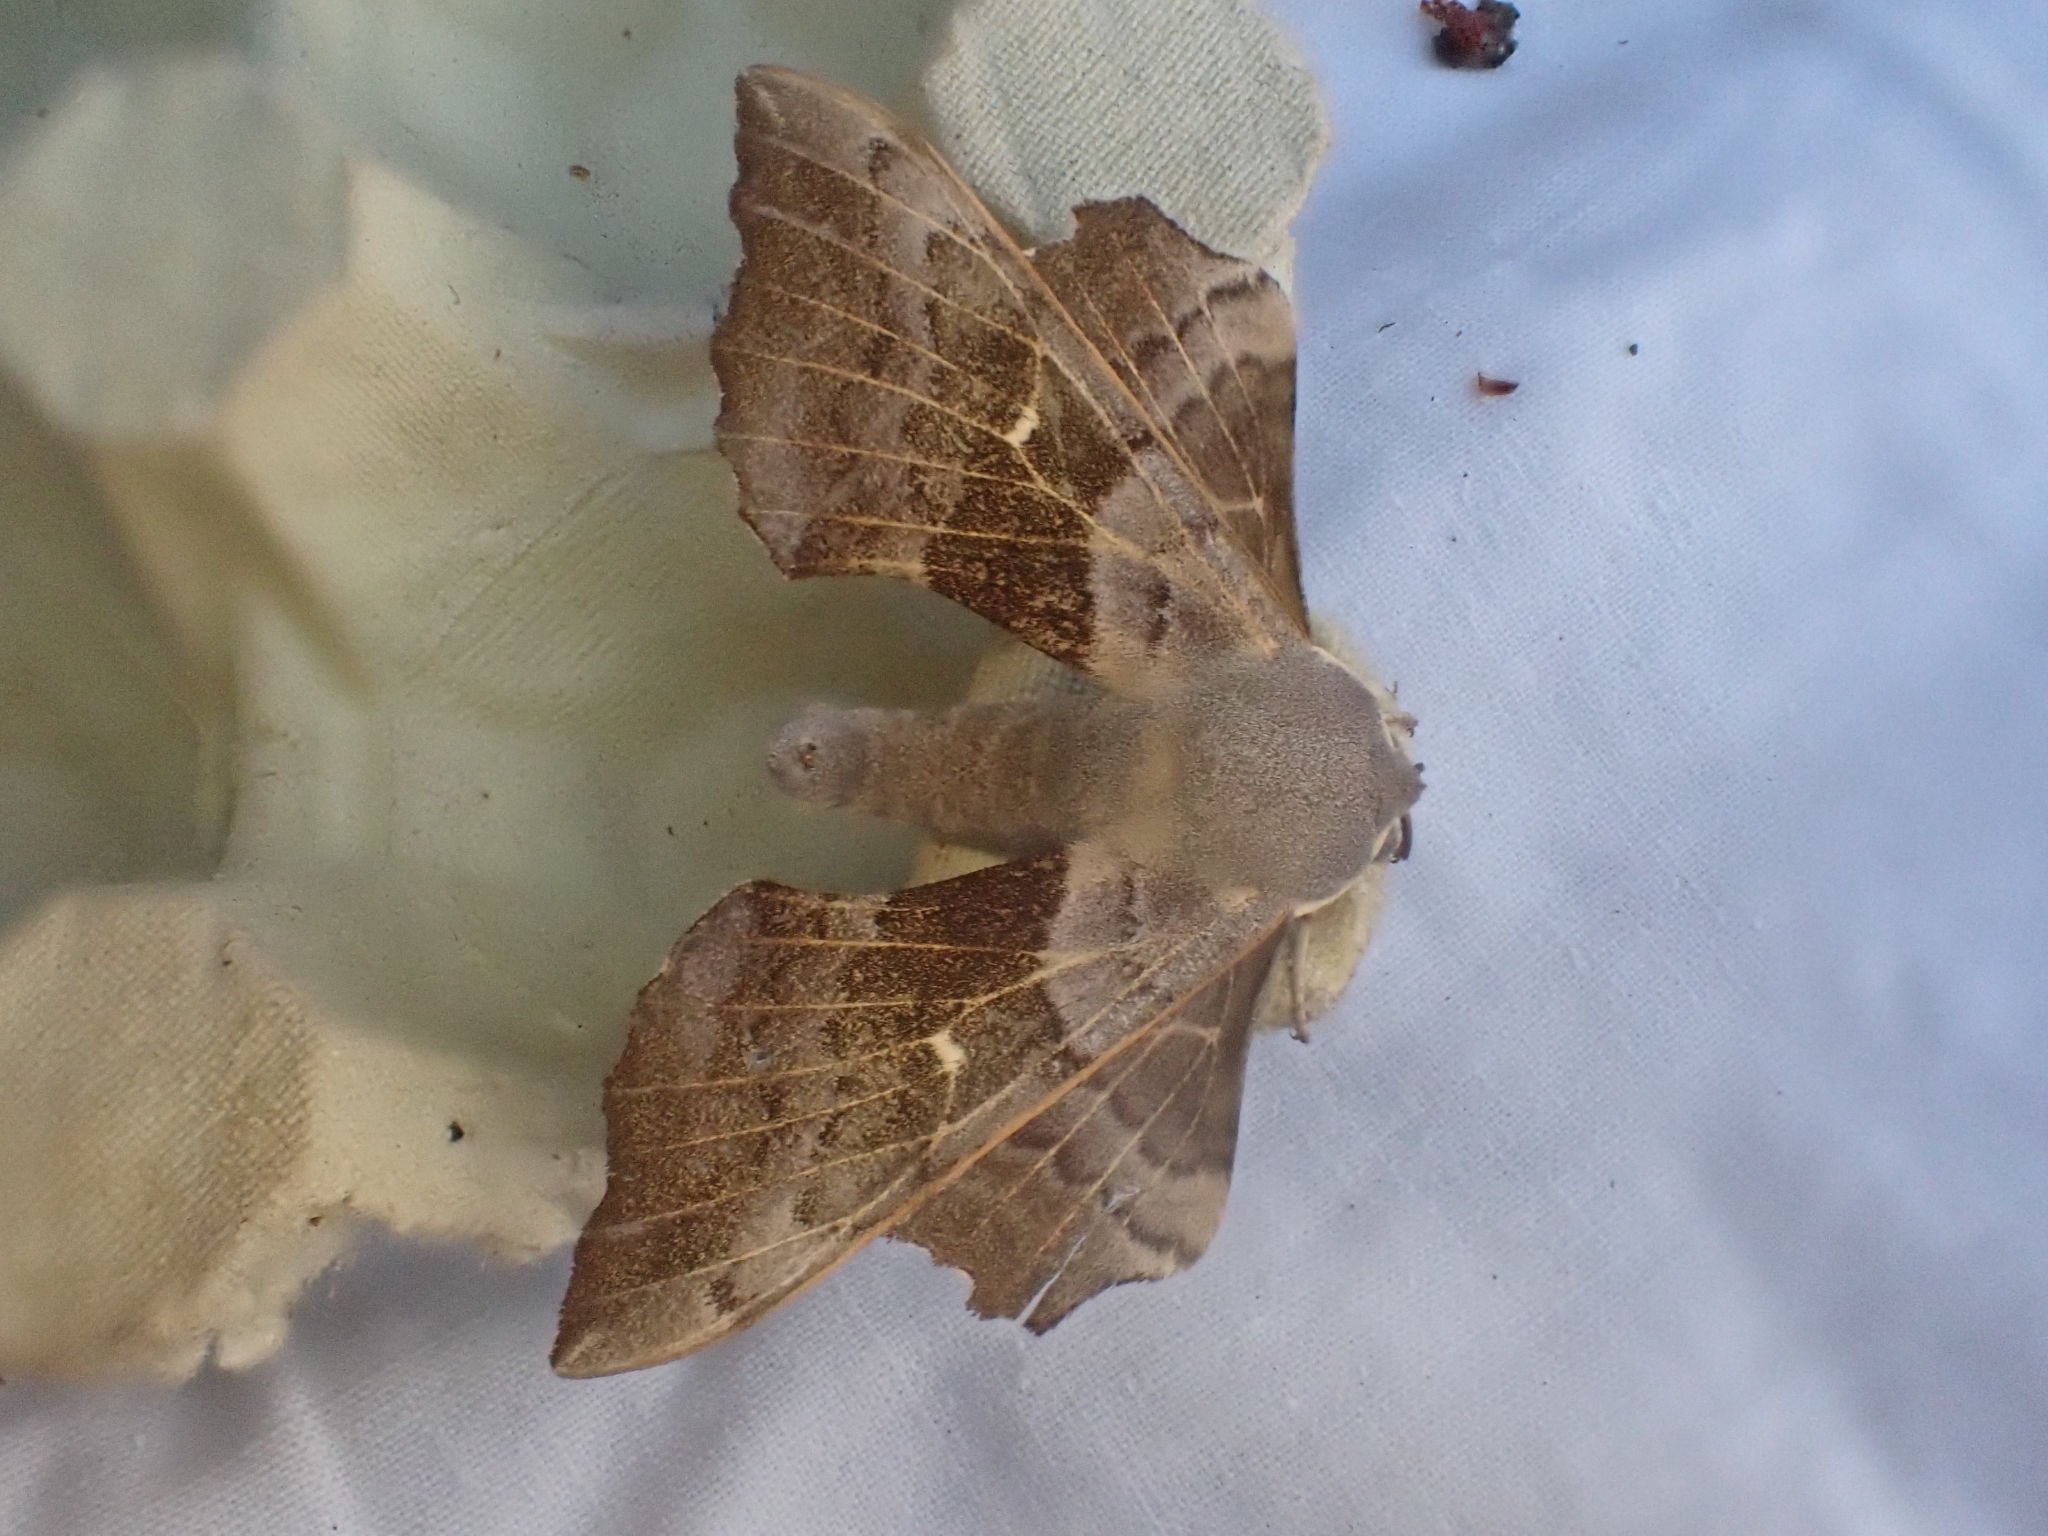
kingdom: Animalia
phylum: Arthropoda
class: Insecta
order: Lepidoptera
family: Sphingidae
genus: Laothoe
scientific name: Laothoe populi
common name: Poplar hawk-moth
